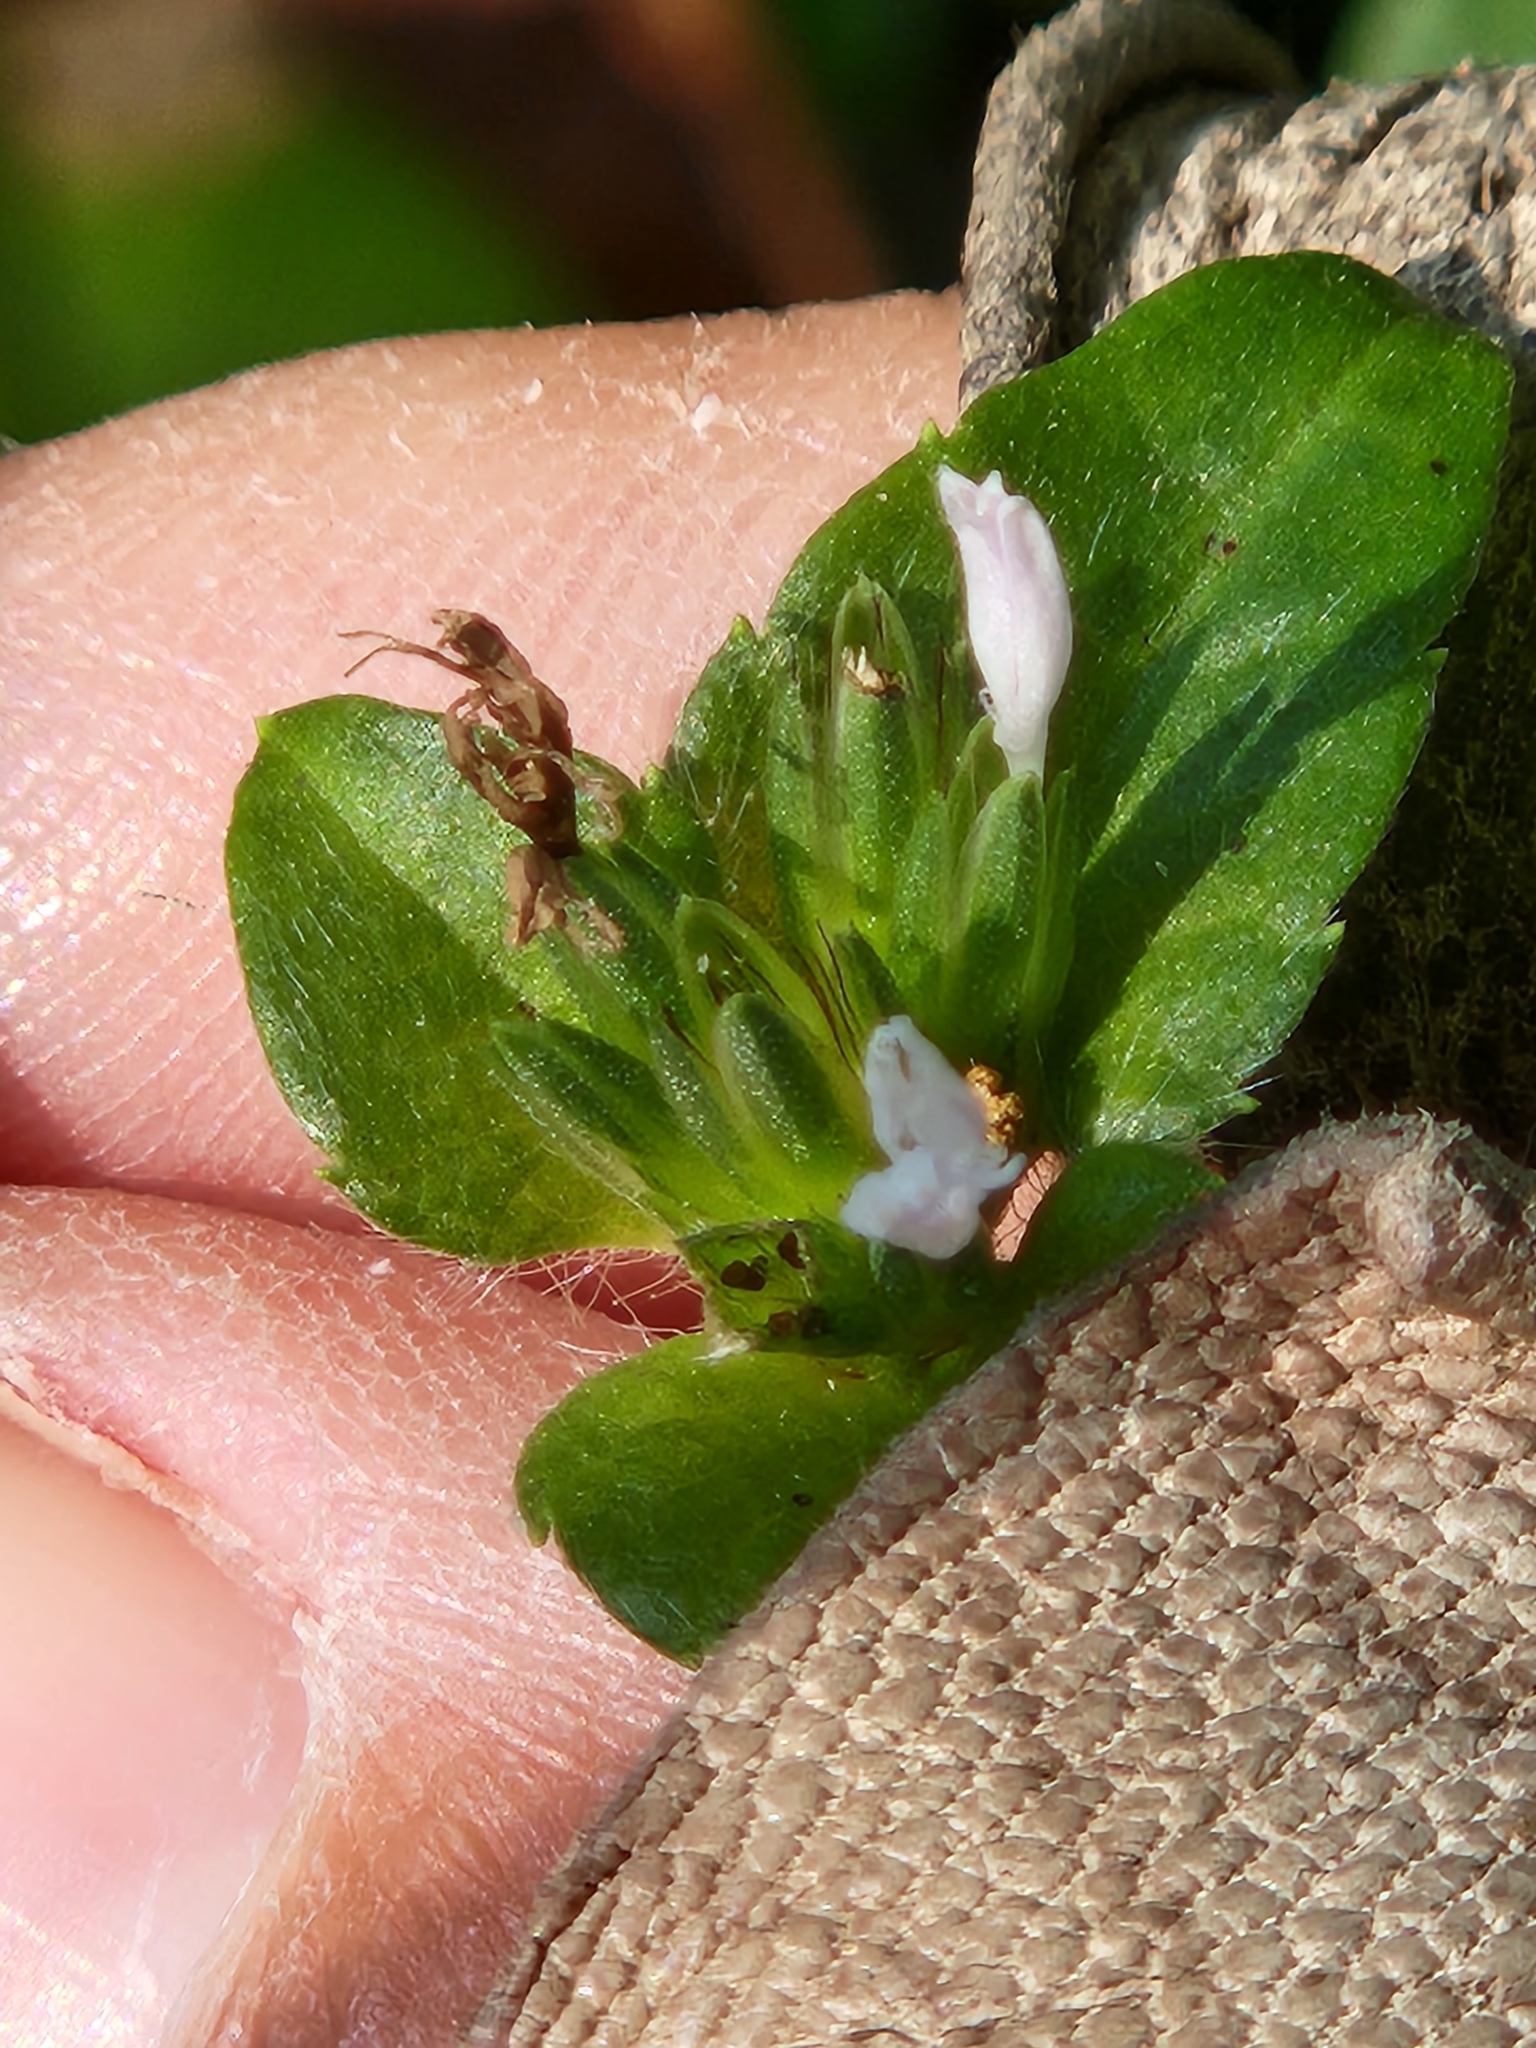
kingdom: Plantae
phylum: Tracheophyta
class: Magnoliopsida
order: Asterales
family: Asteraceae
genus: Elephantopus
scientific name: Elephantopus carolinianus
